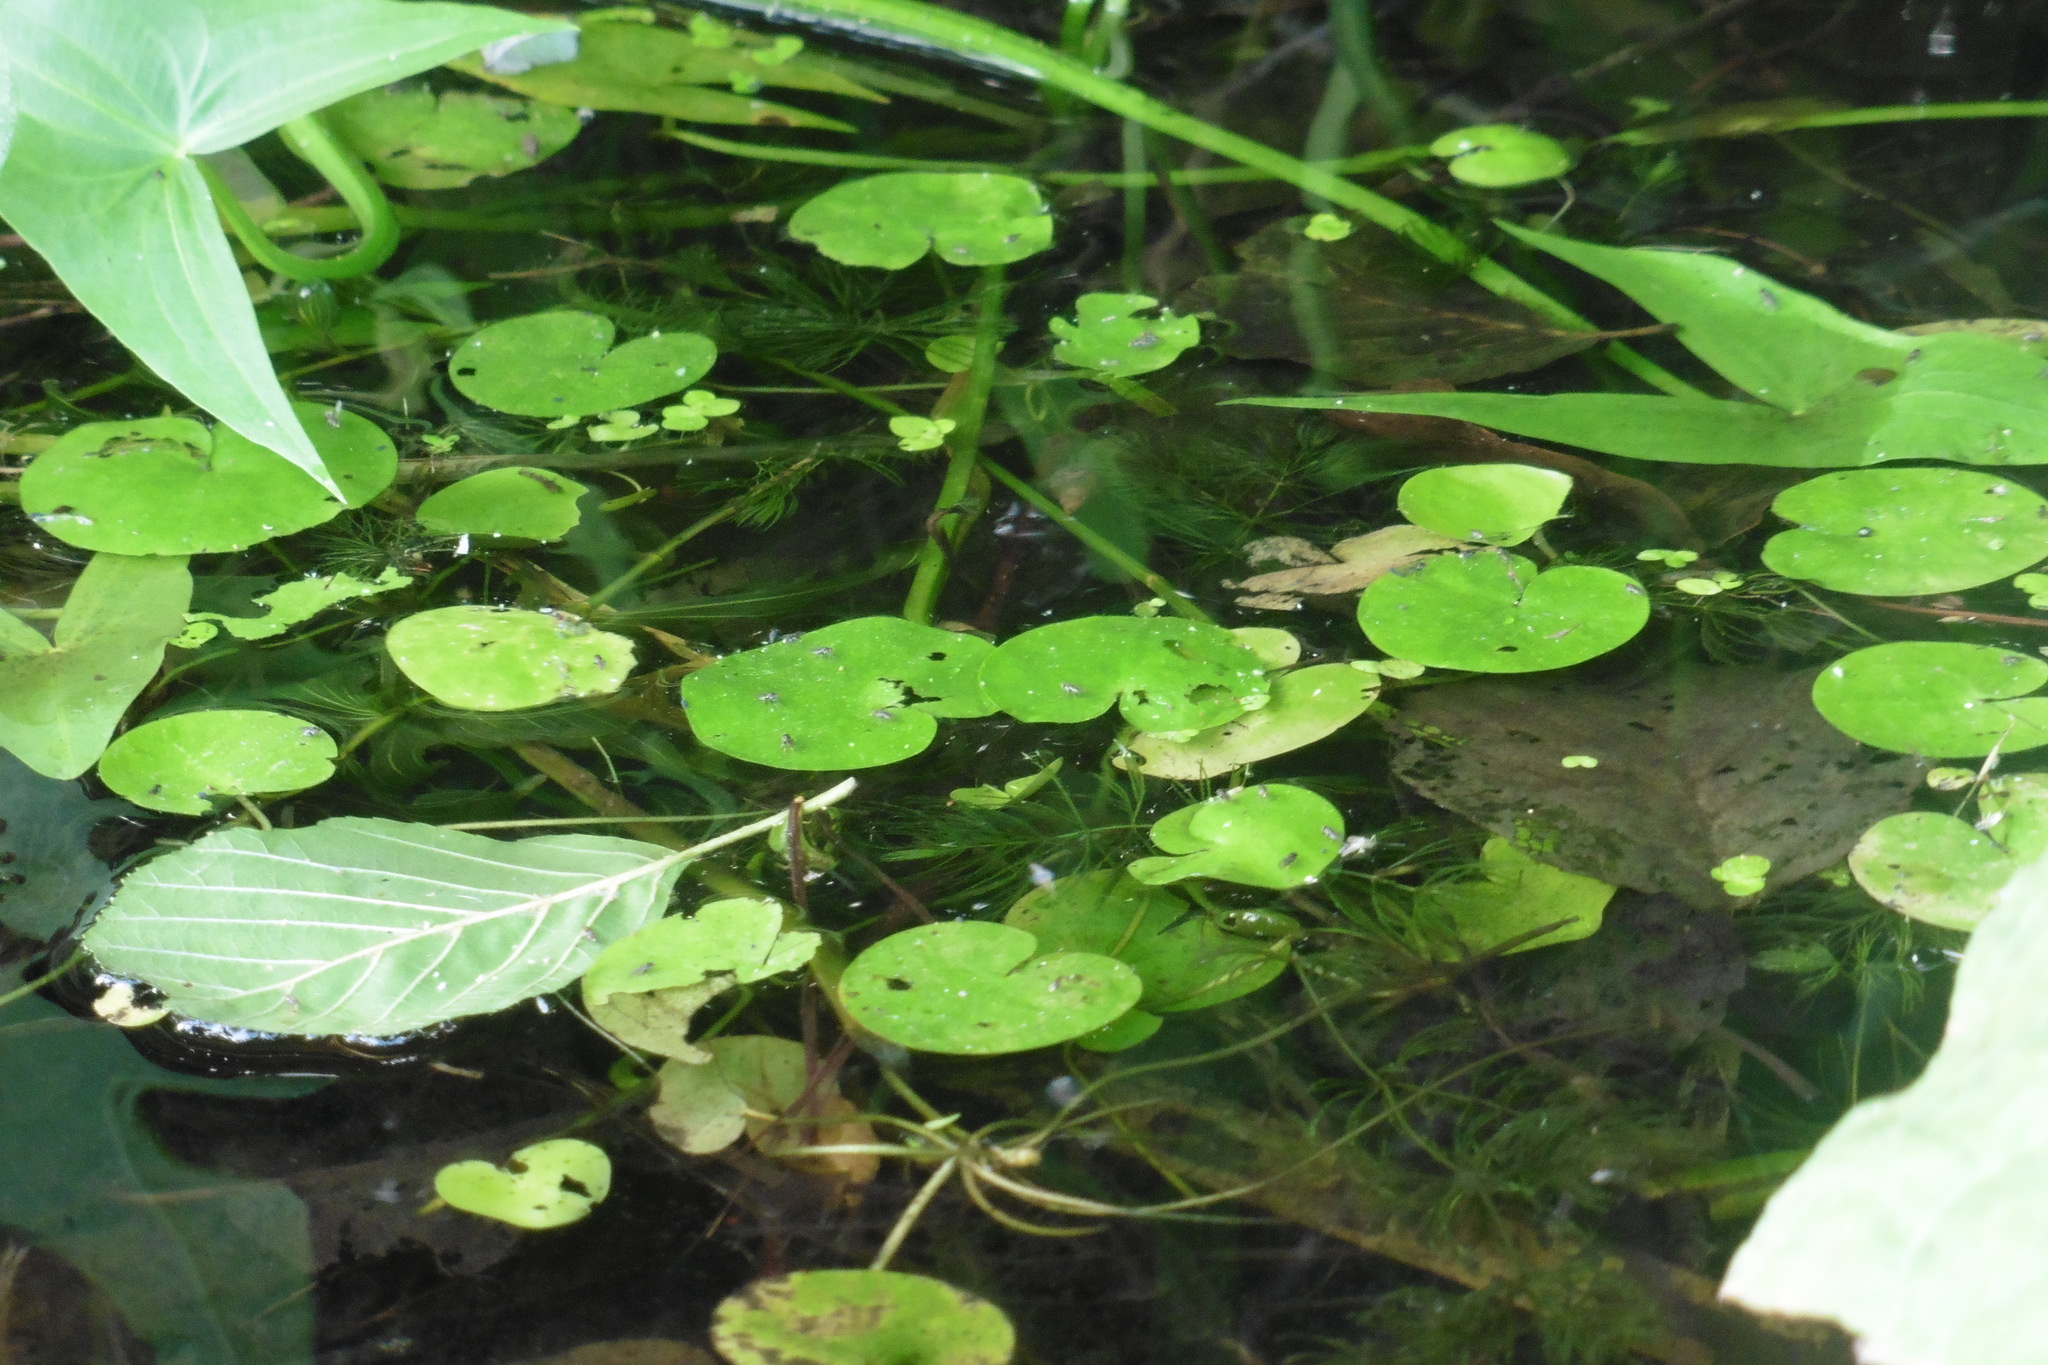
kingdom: Plantae
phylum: Tracheophyta
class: Liliopsida
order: Alismatales
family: Hydrocharitaceae
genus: Hydrocharis
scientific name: Hydrocharis morsus-ranae
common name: Frogbit
